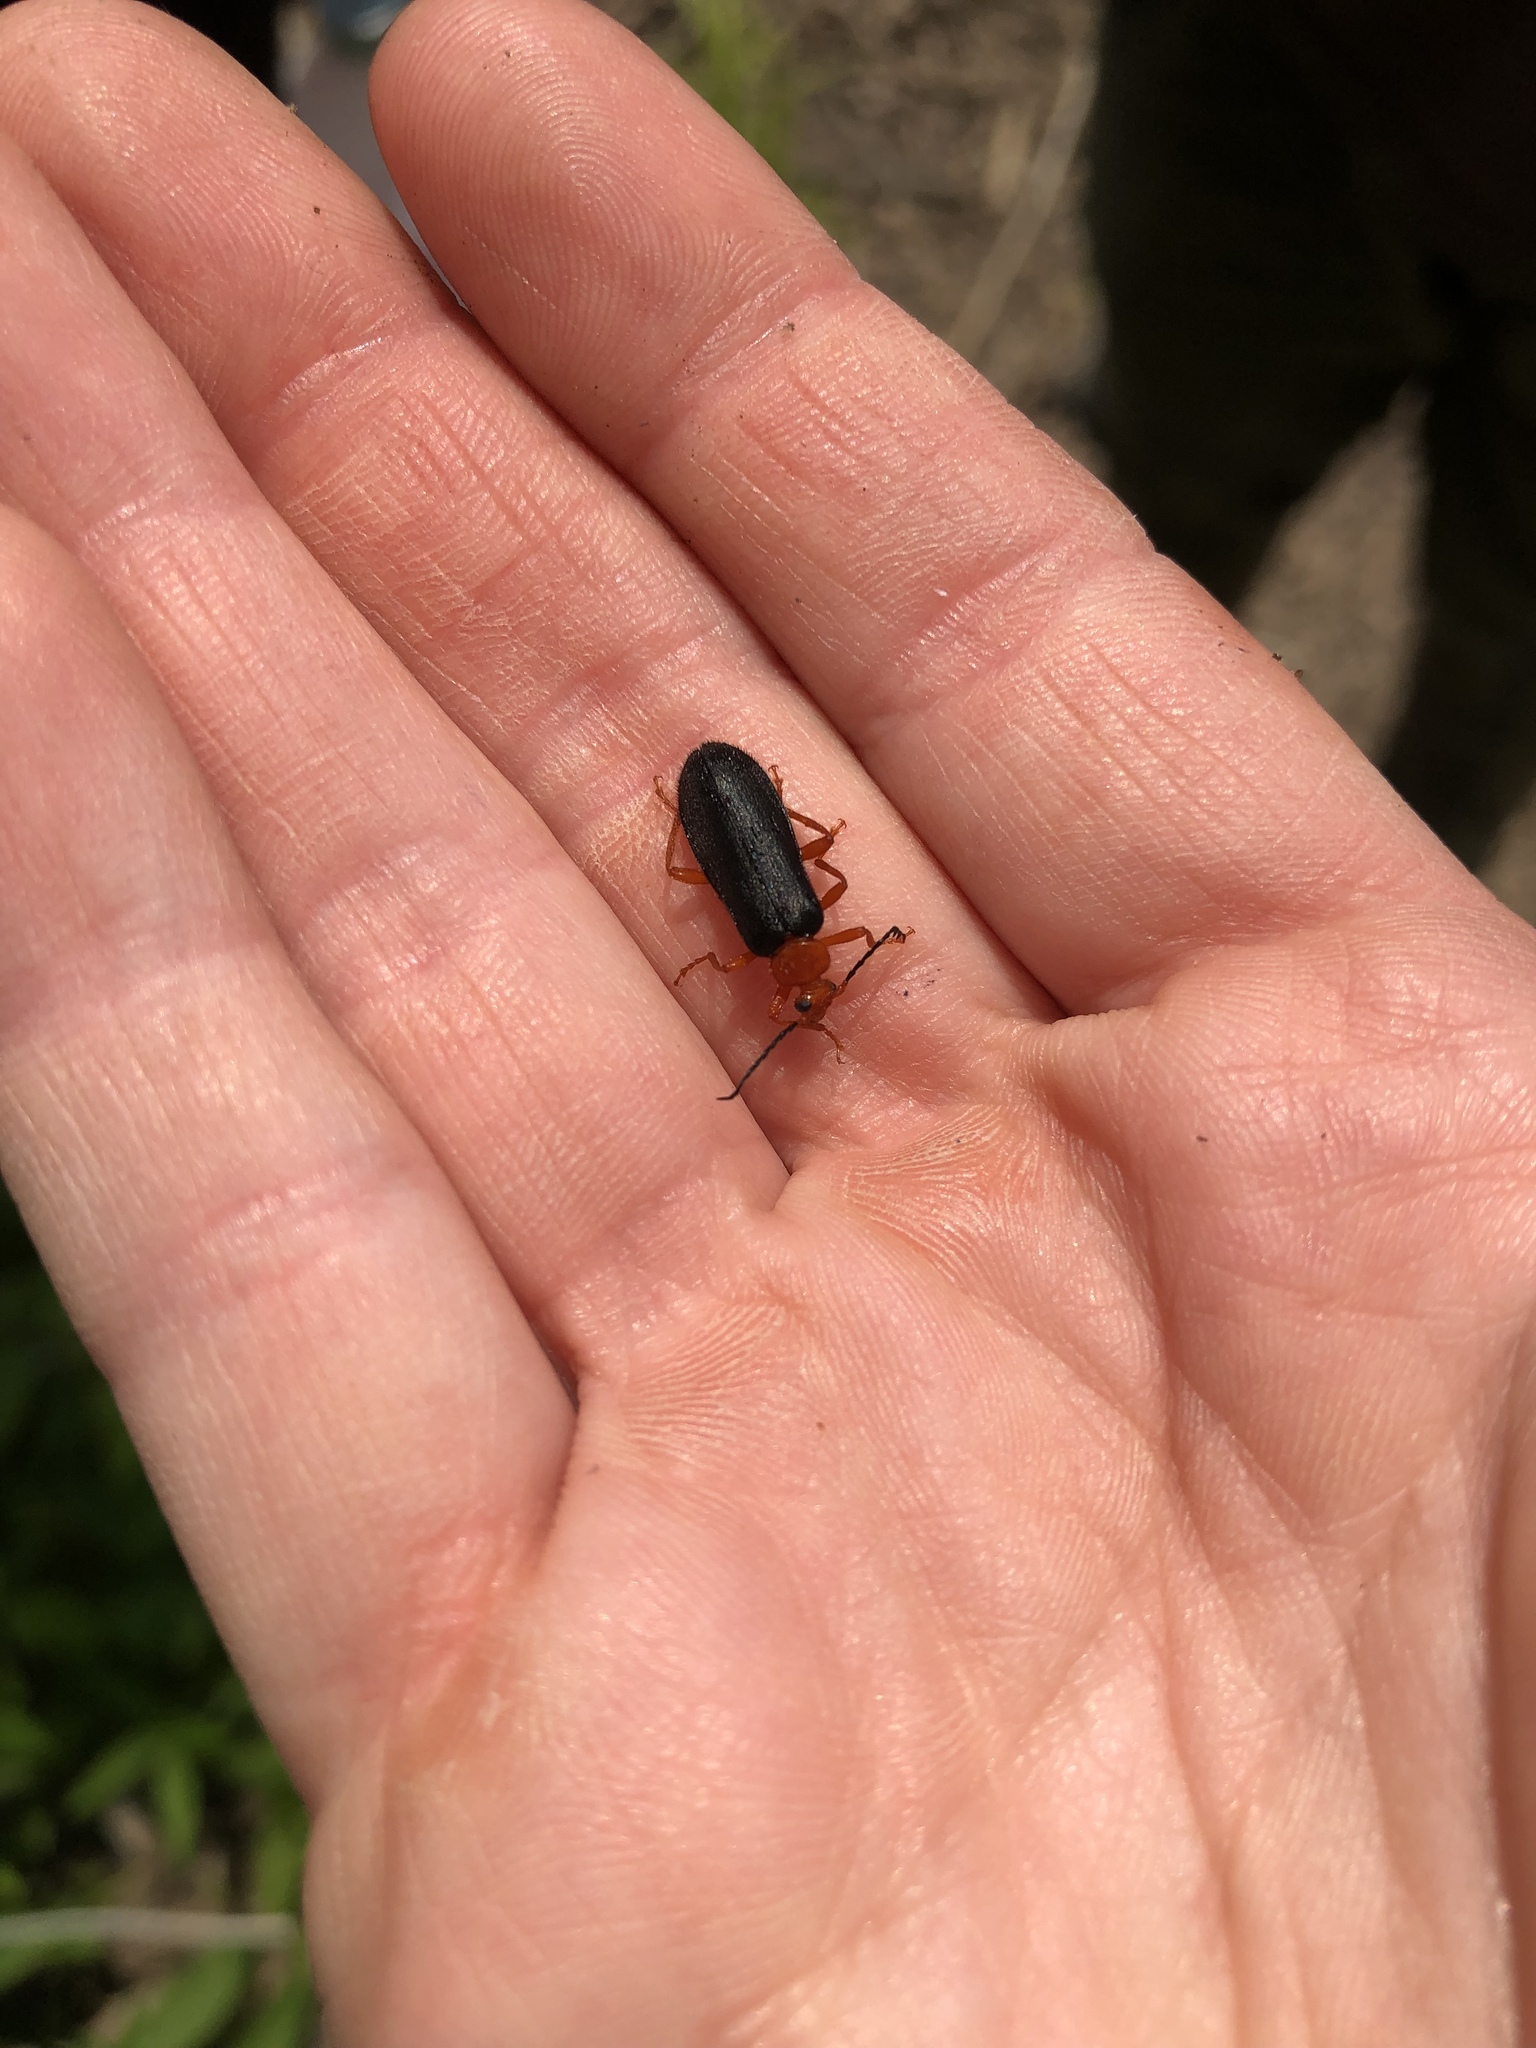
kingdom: Animalia
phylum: Arthropoda
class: Insecta
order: Coleoptera
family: Pyrochroidae
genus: Neopyrochroa
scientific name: Neopyrochroa flabellata
